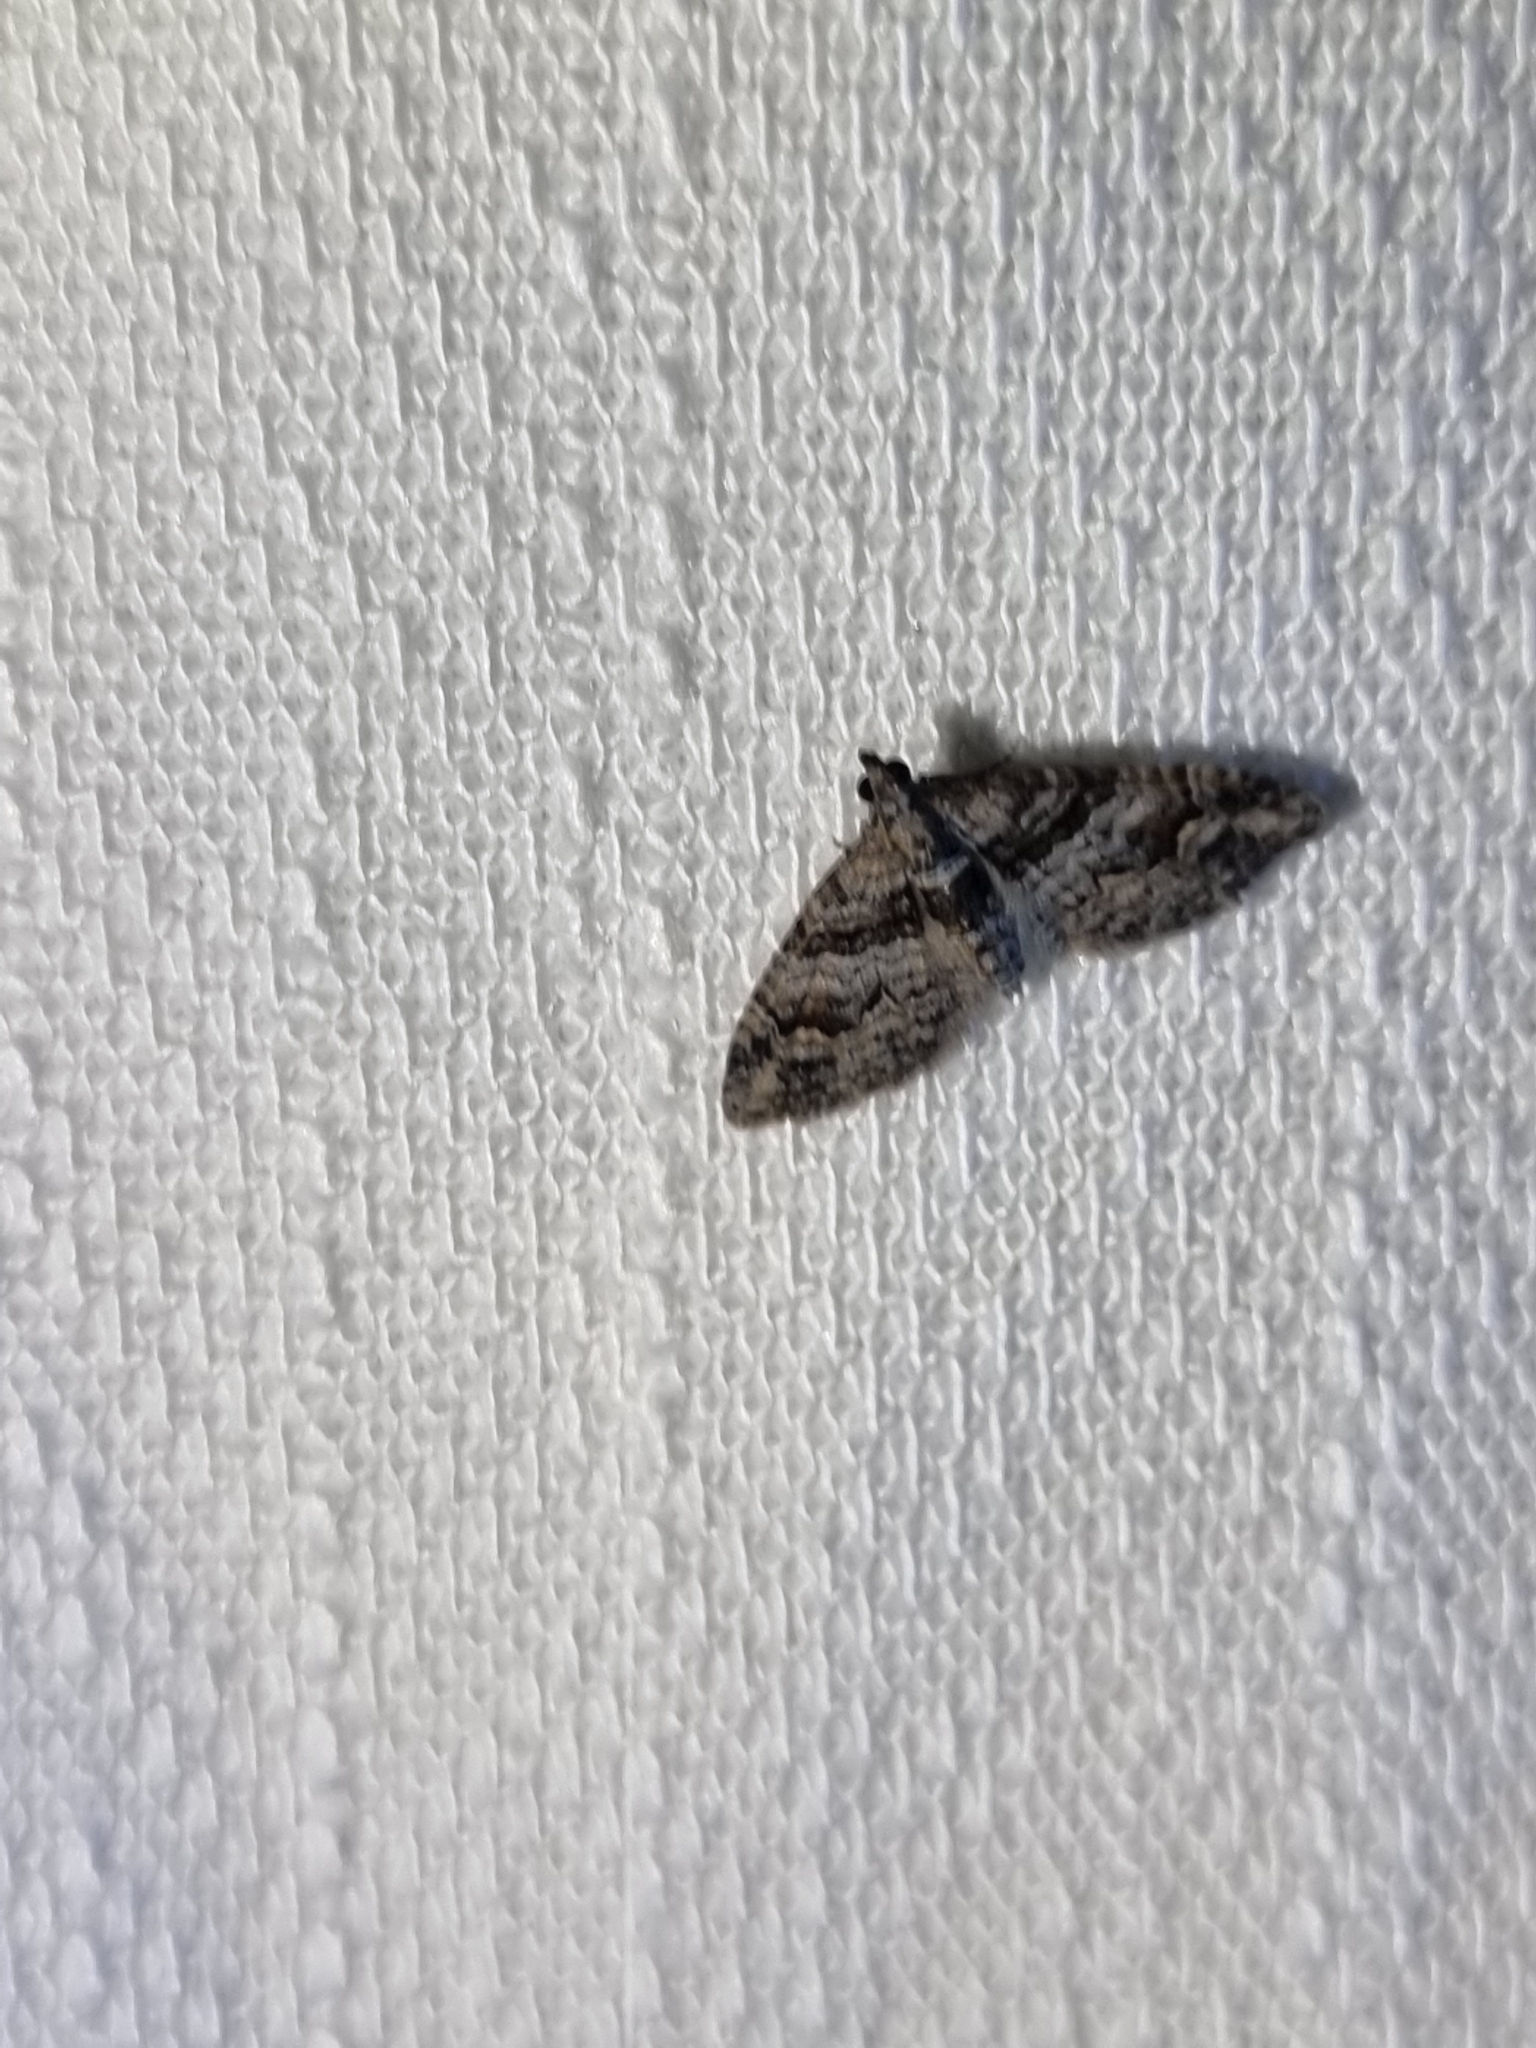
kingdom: Animalia
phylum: Arthropoda
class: Insecta
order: Lepidoptera
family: Geometridae
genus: Phrissogonus
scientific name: Phrissogonus laticostata
